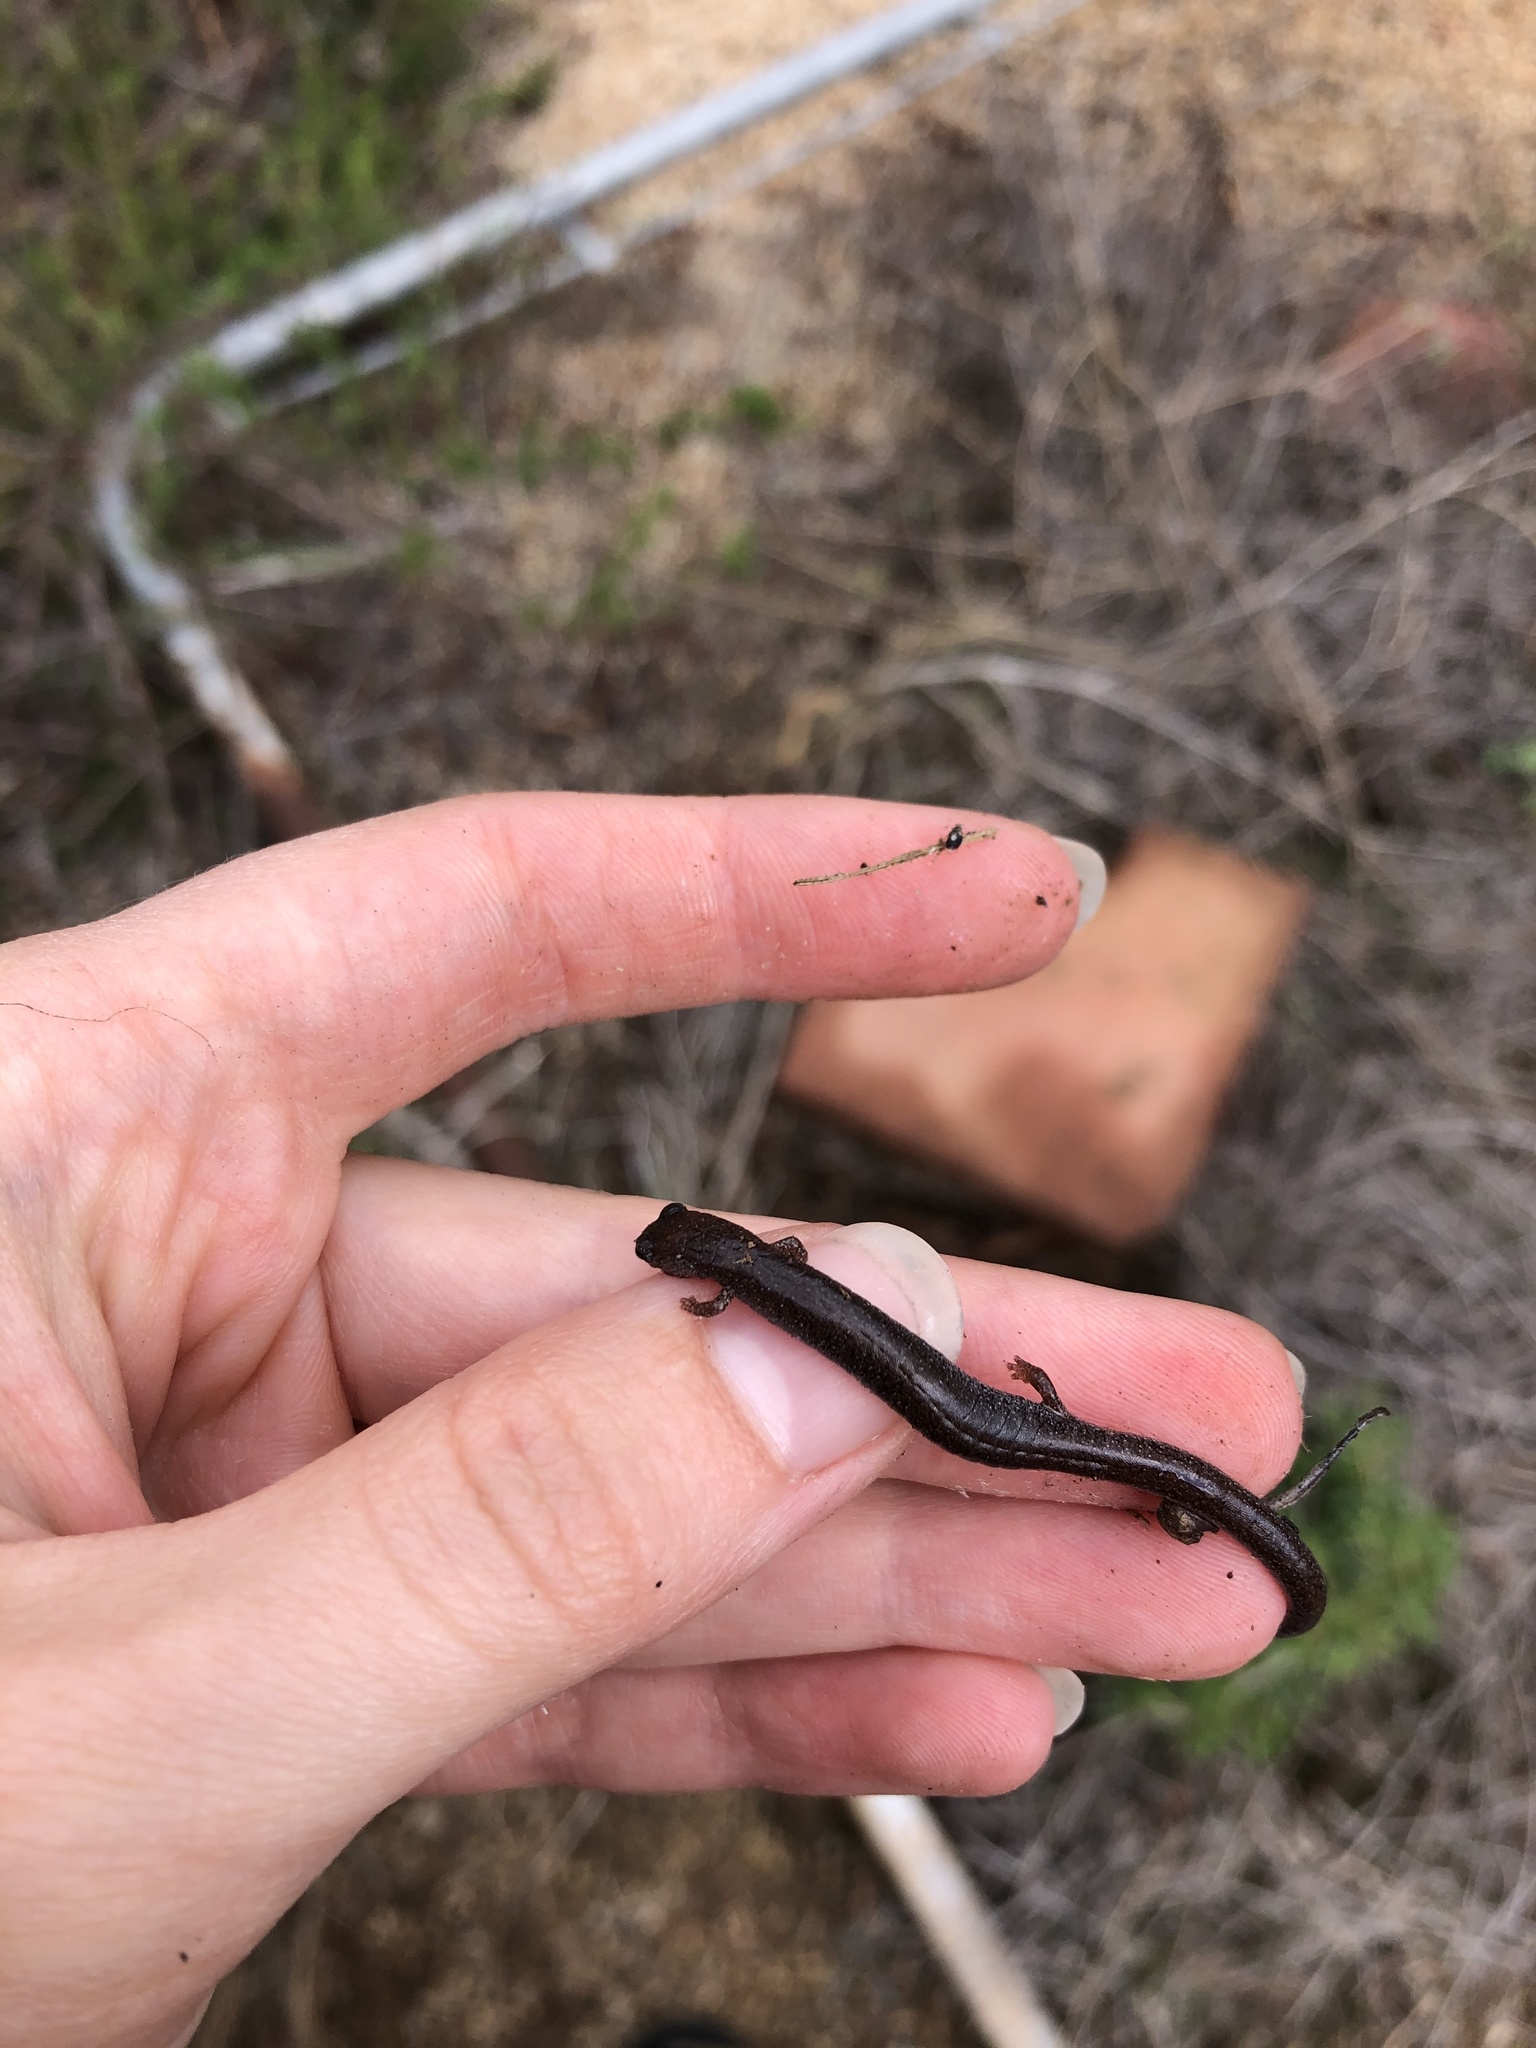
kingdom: Animalia
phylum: Chordata
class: Amphibia
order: Caudata
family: Plethodontidae
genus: Batrachoseps
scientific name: Batrachoseps major
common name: Garden slender salamander
